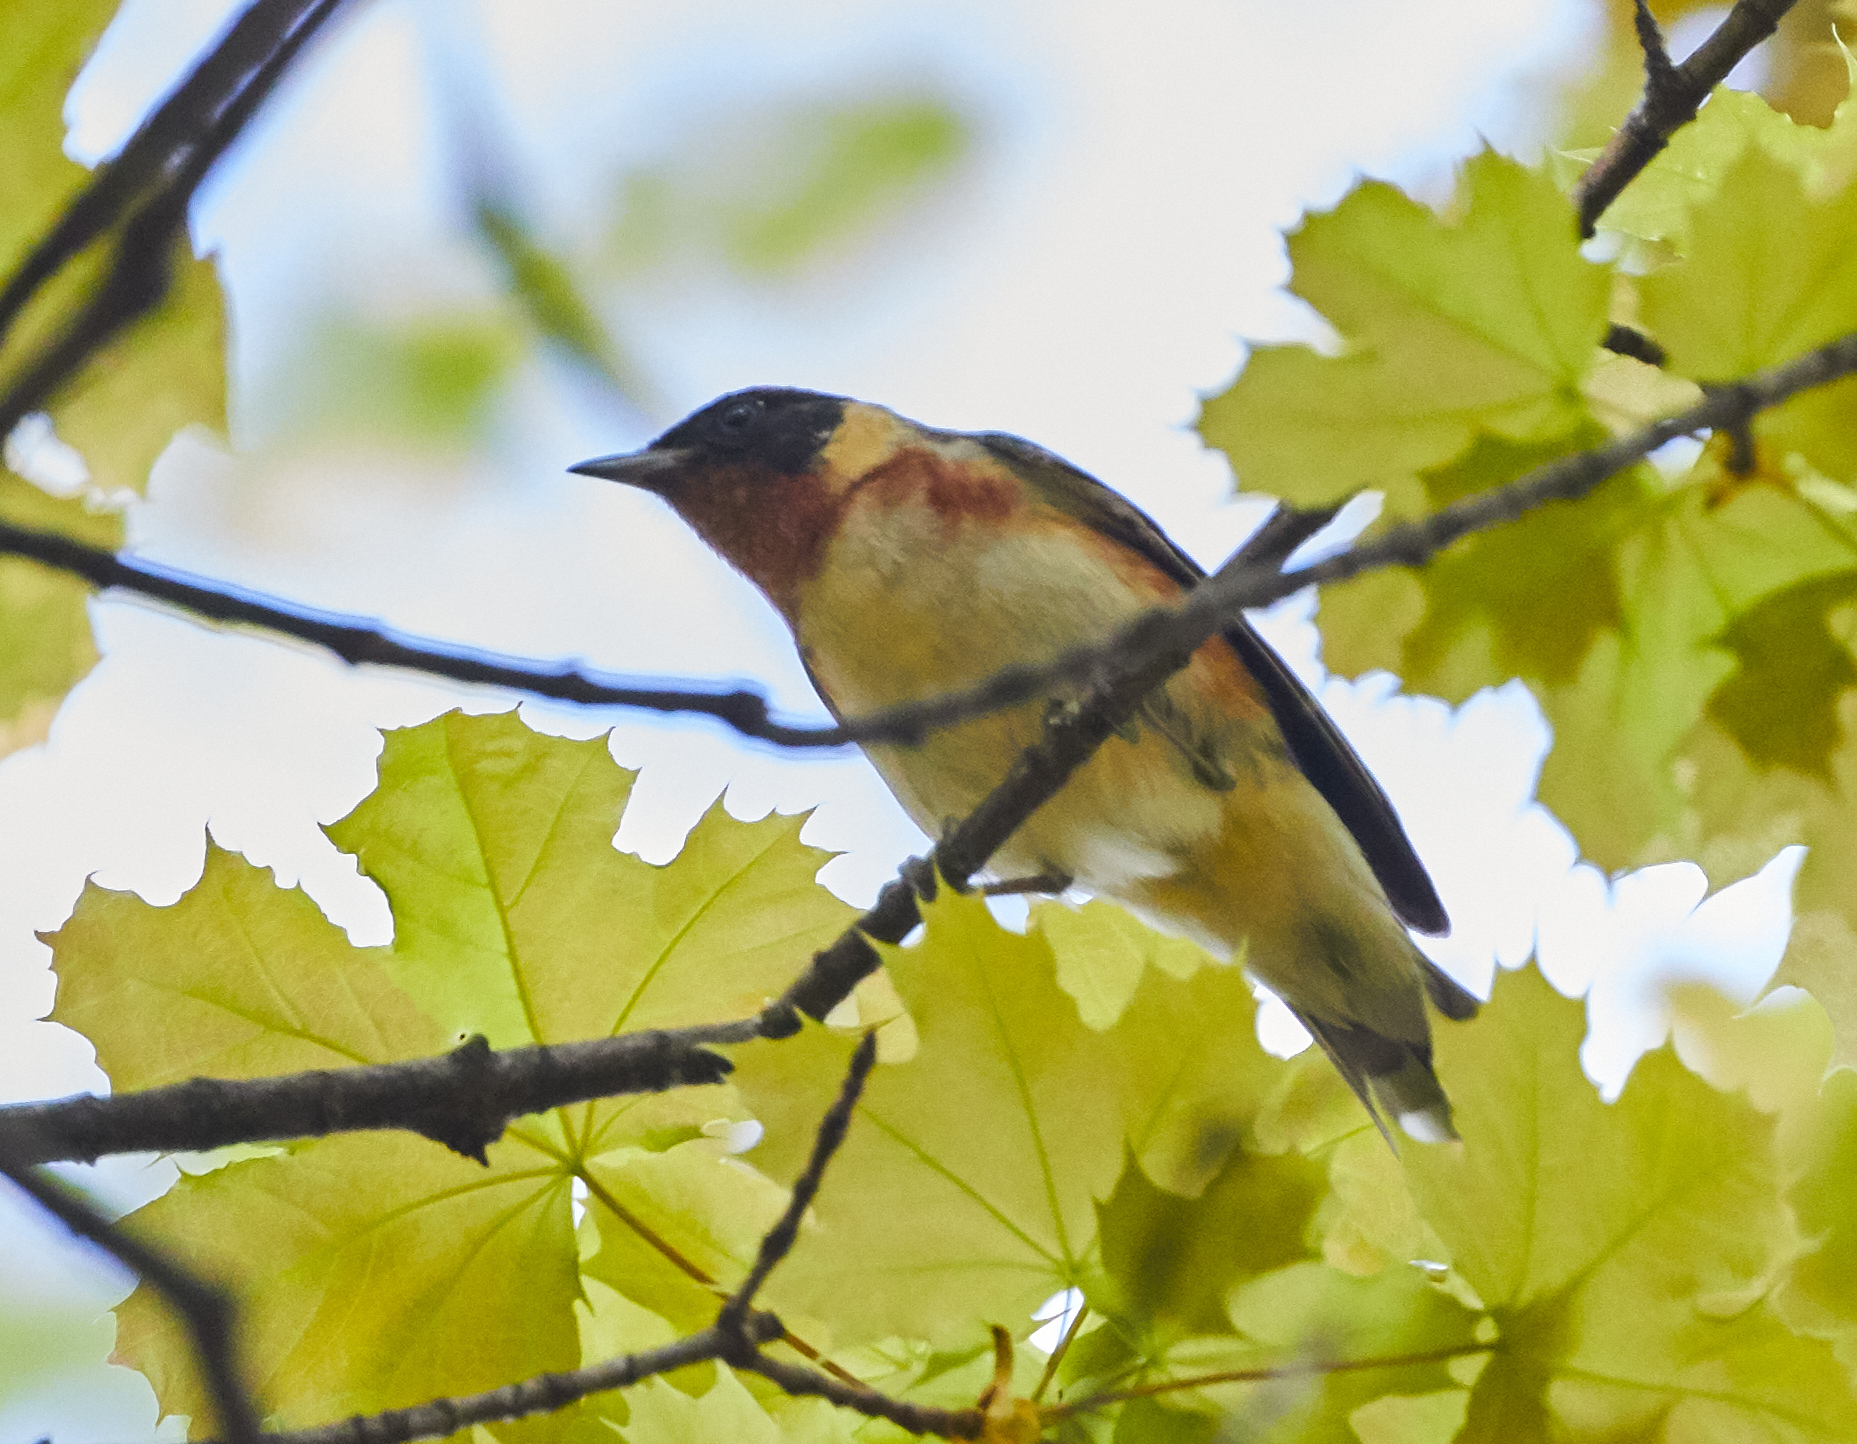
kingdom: Animalia
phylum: Chordata
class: Aves
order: Passeriformes
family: Parulidae
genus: Setophaga
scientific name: Setophaga castanea
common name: Bay-breasted warbler
